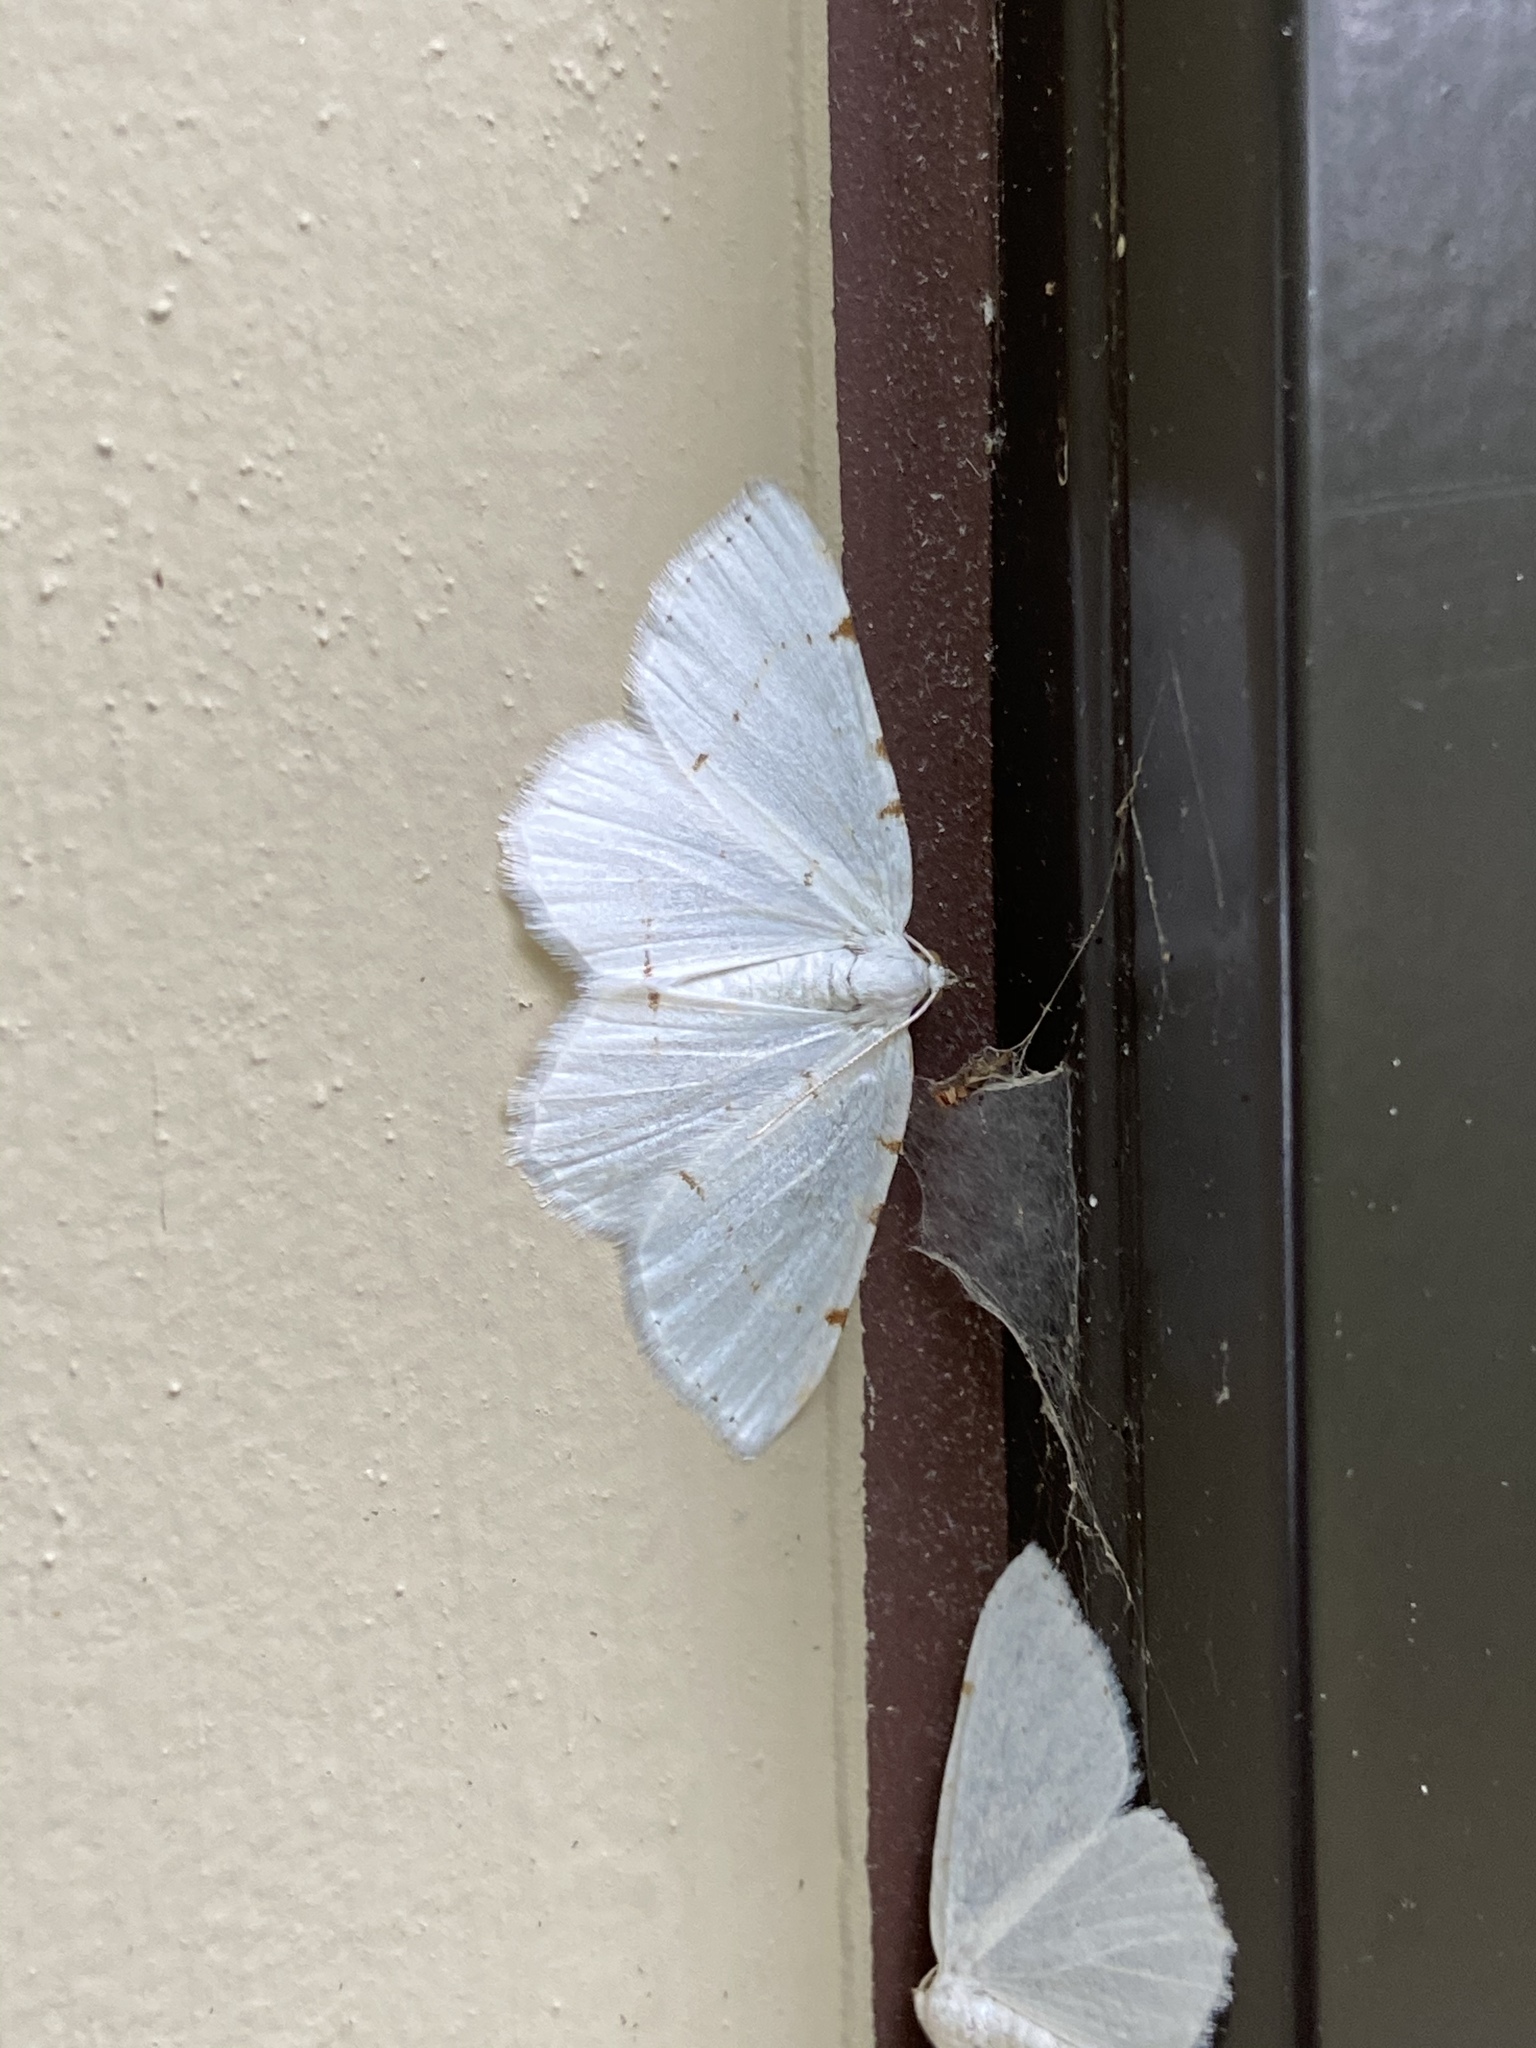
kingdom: Animalia
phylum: Arthropoda
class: Insecta
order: Lepidoptera
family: Geometridae
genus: Macaria
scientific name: Macaria pustularia
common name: Lesser maple spanworm moth
